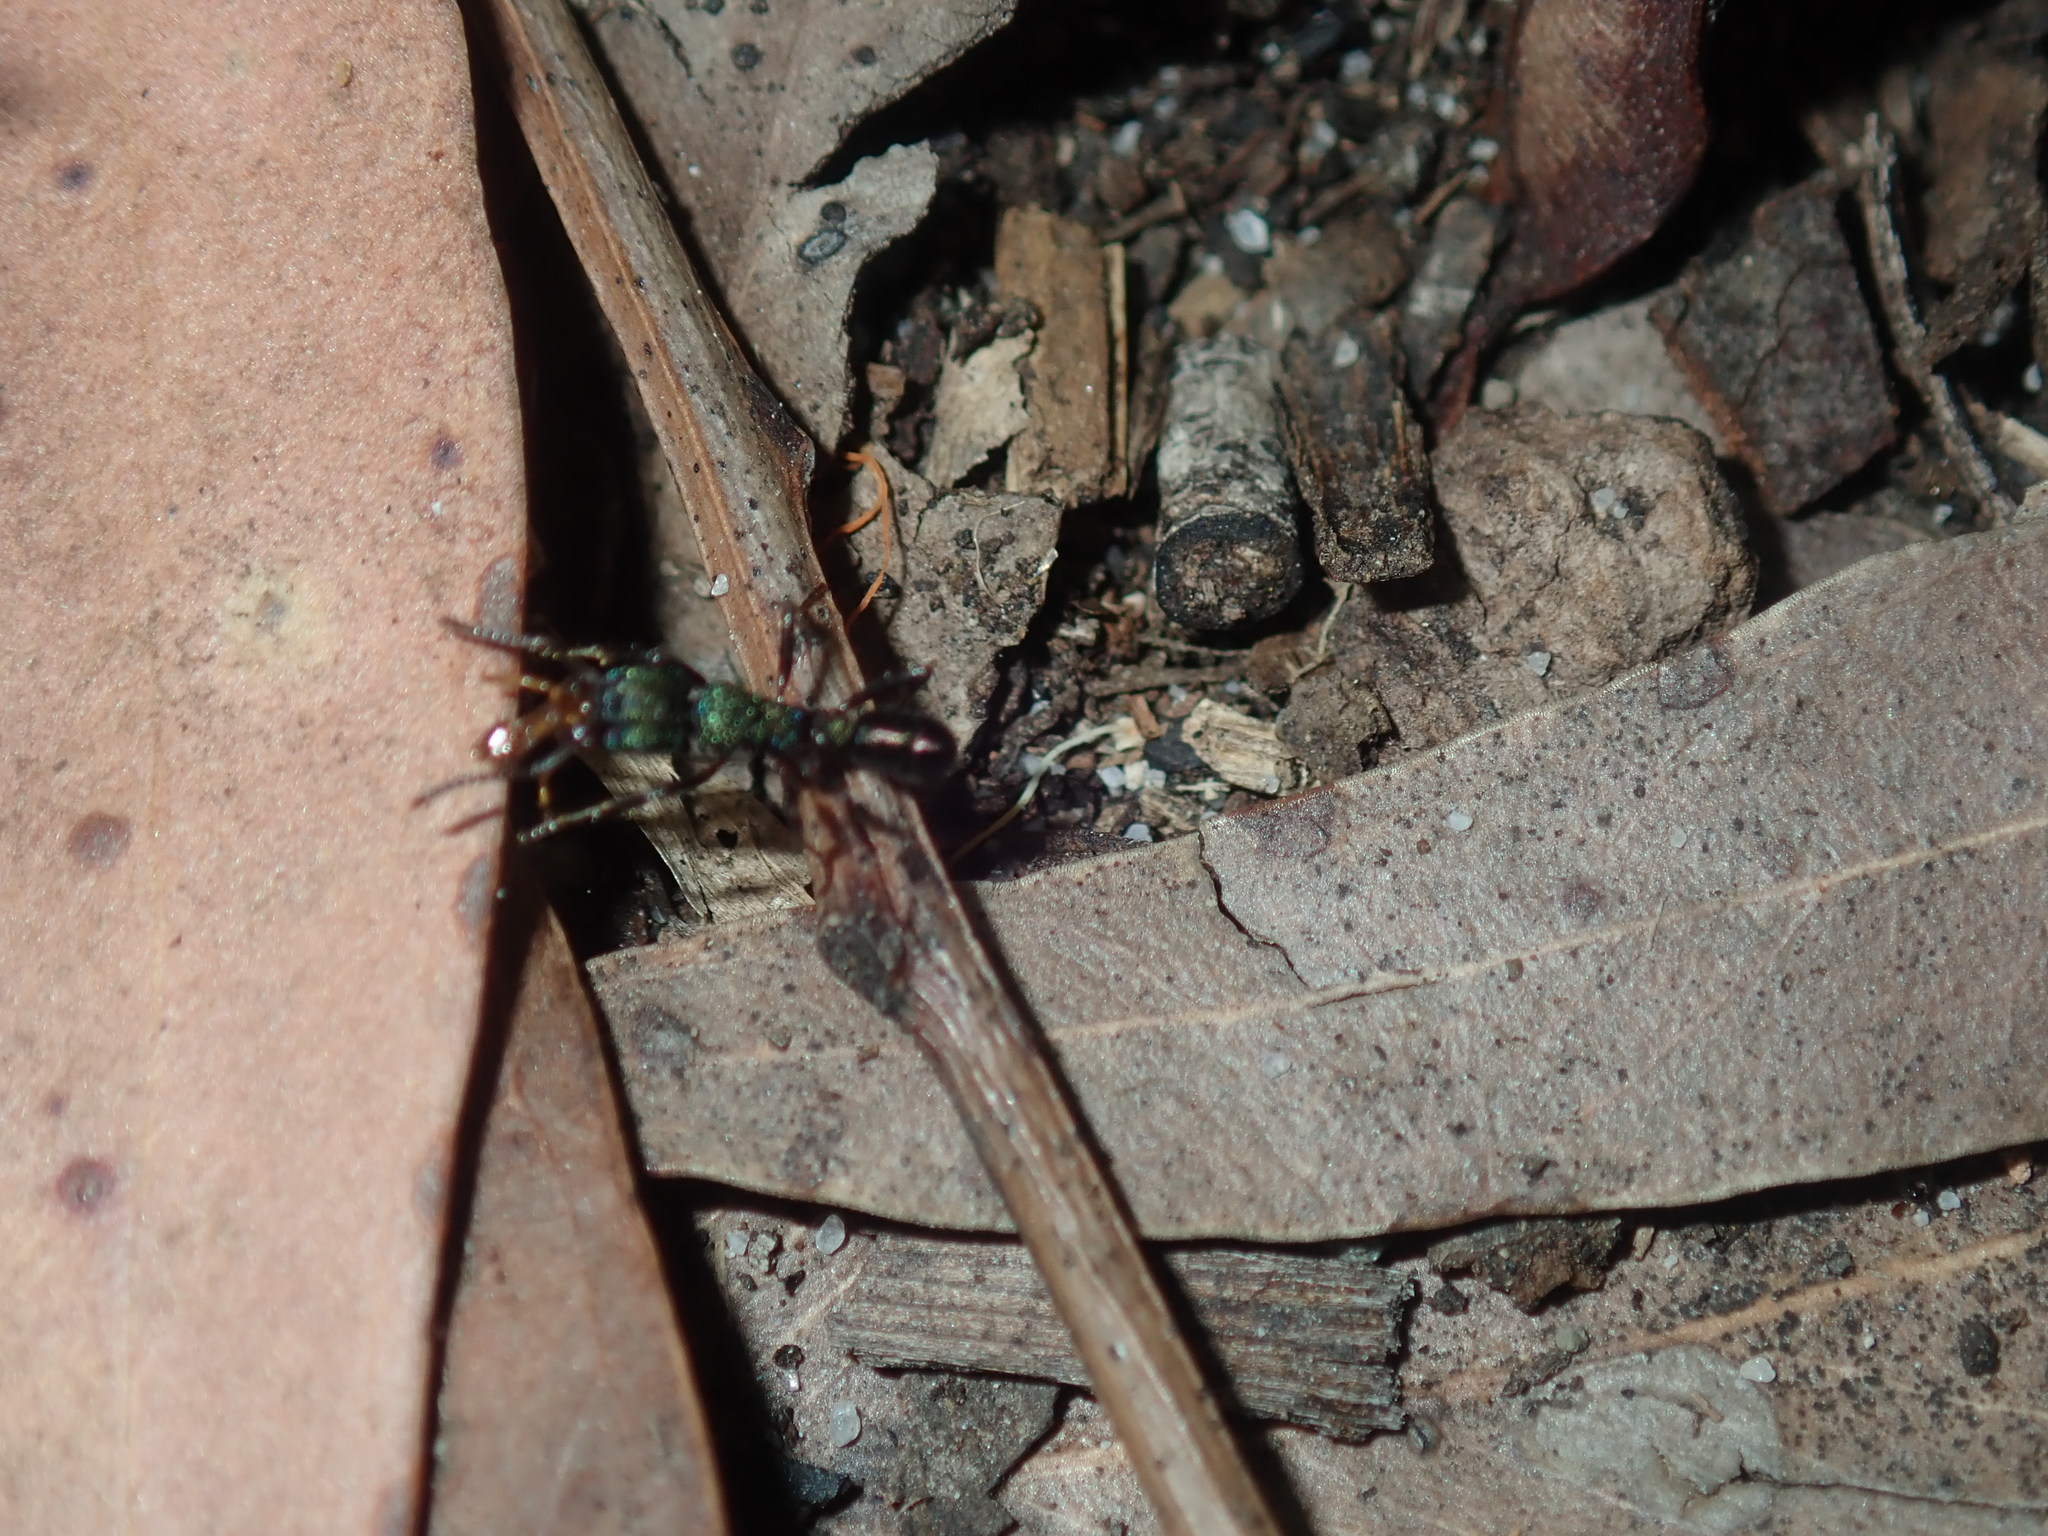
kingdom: Animalia
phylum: Arthropoda
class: Insecta
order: Hymenoptera
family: Formicidae
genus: Rhytidoponera
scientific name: Rhytidoponera metallica
